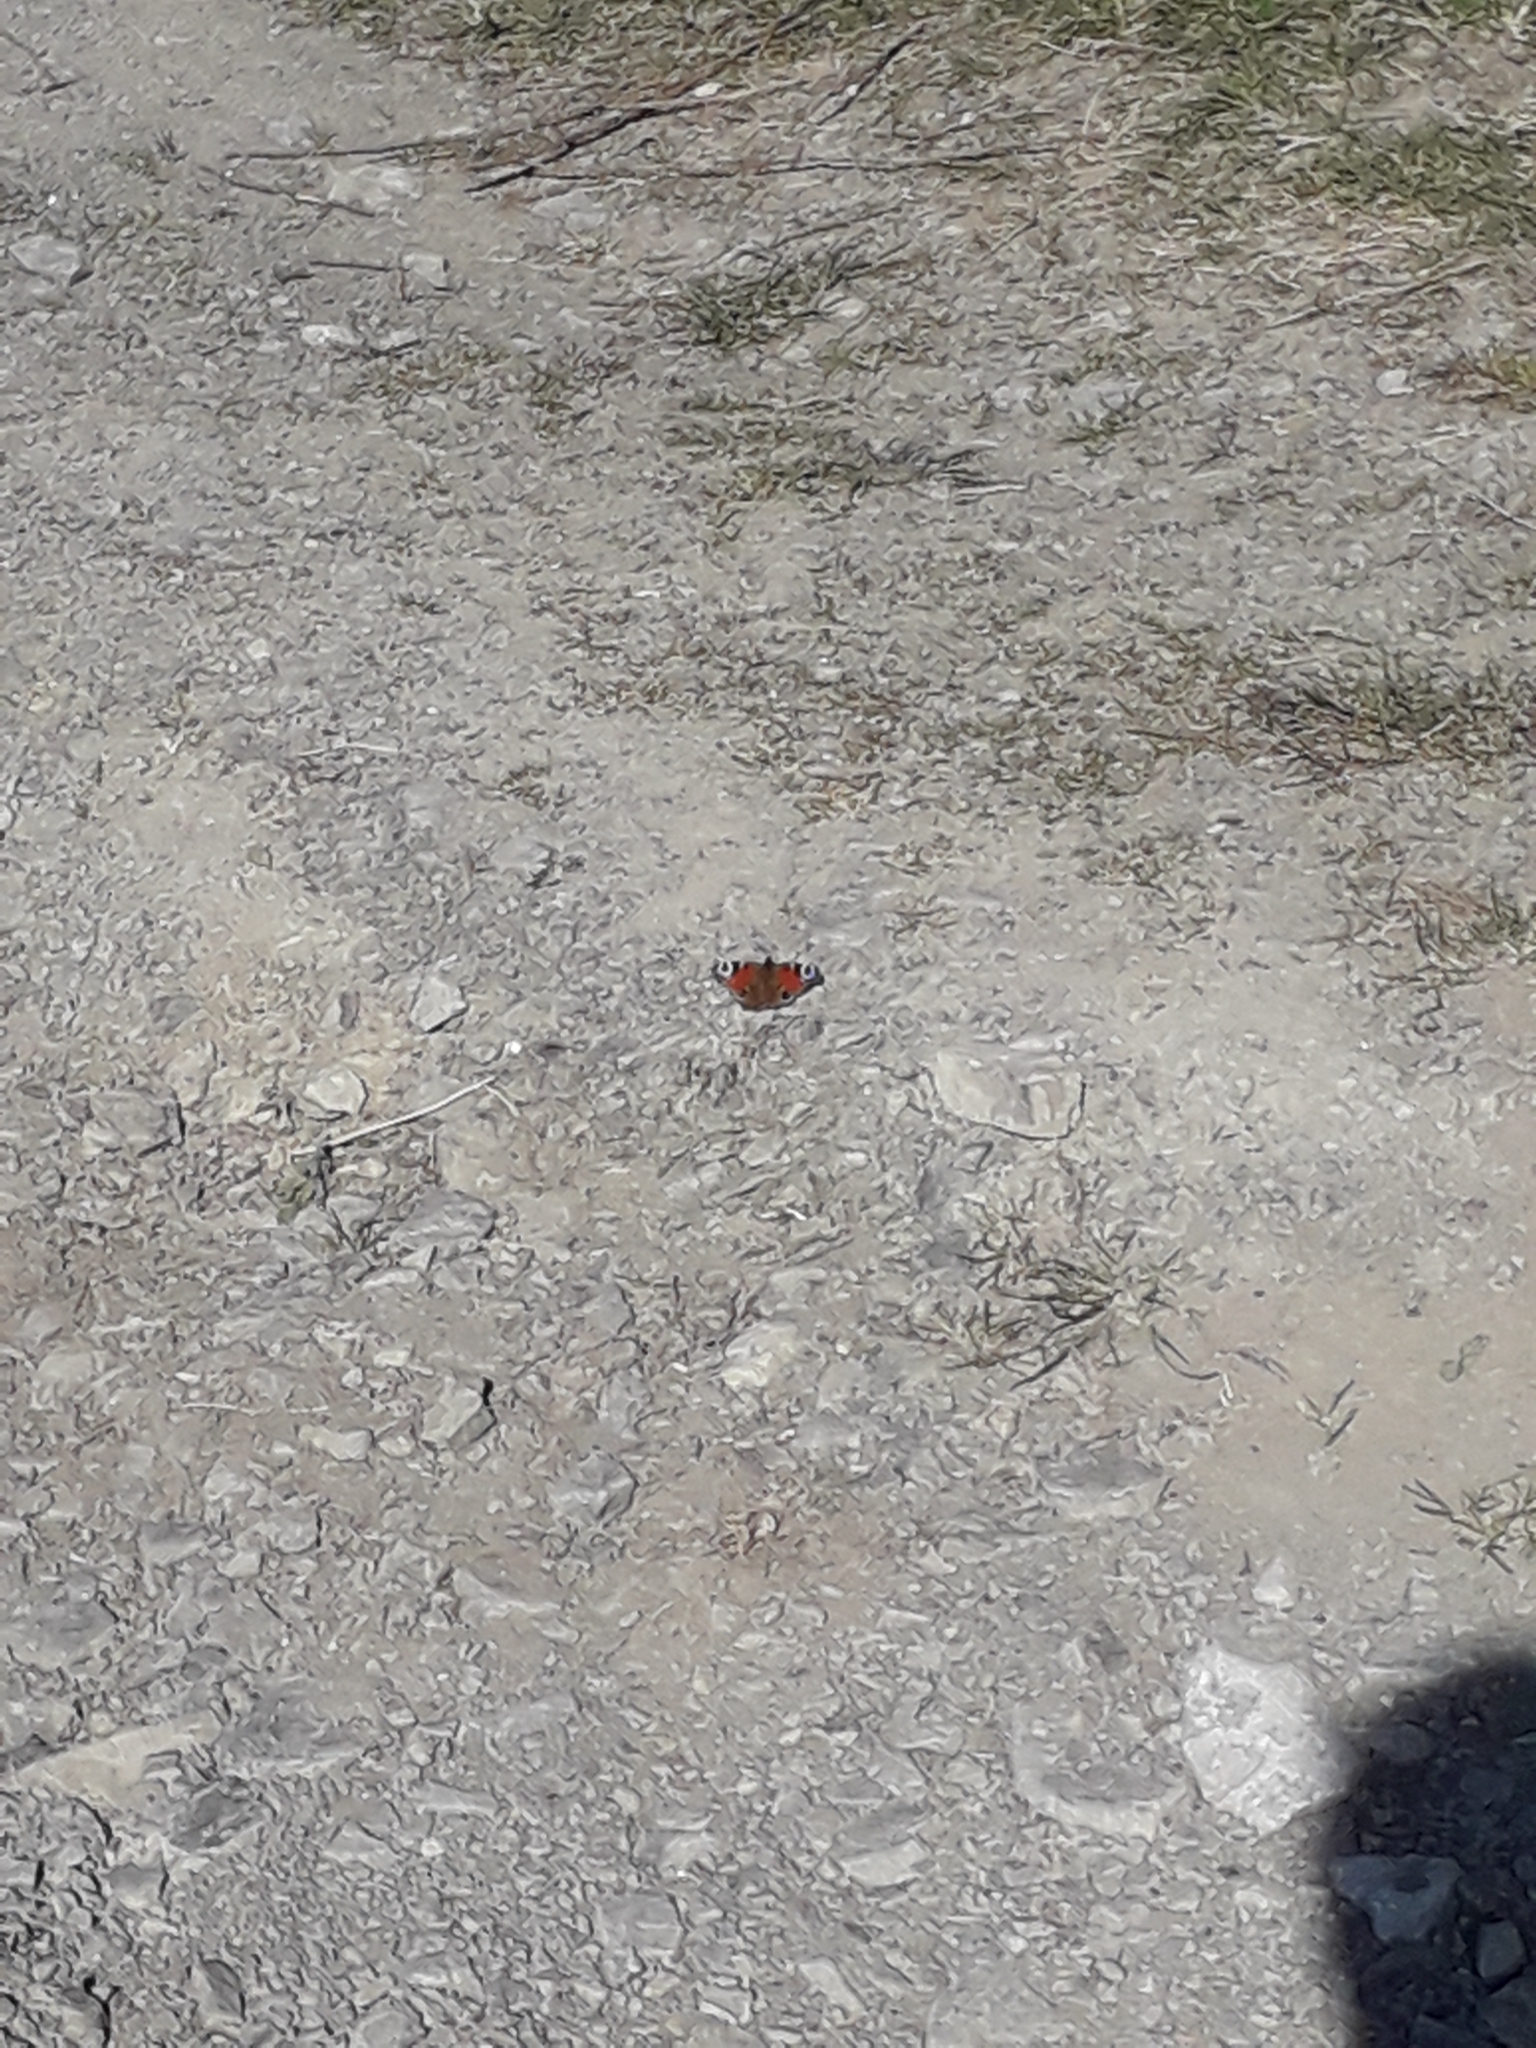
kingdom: Animalia
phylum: Arthropoda
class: Insecta
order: Lepidoptera
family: Nymphalidae
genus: Aglais
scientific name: Aglais io
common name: Peacock
